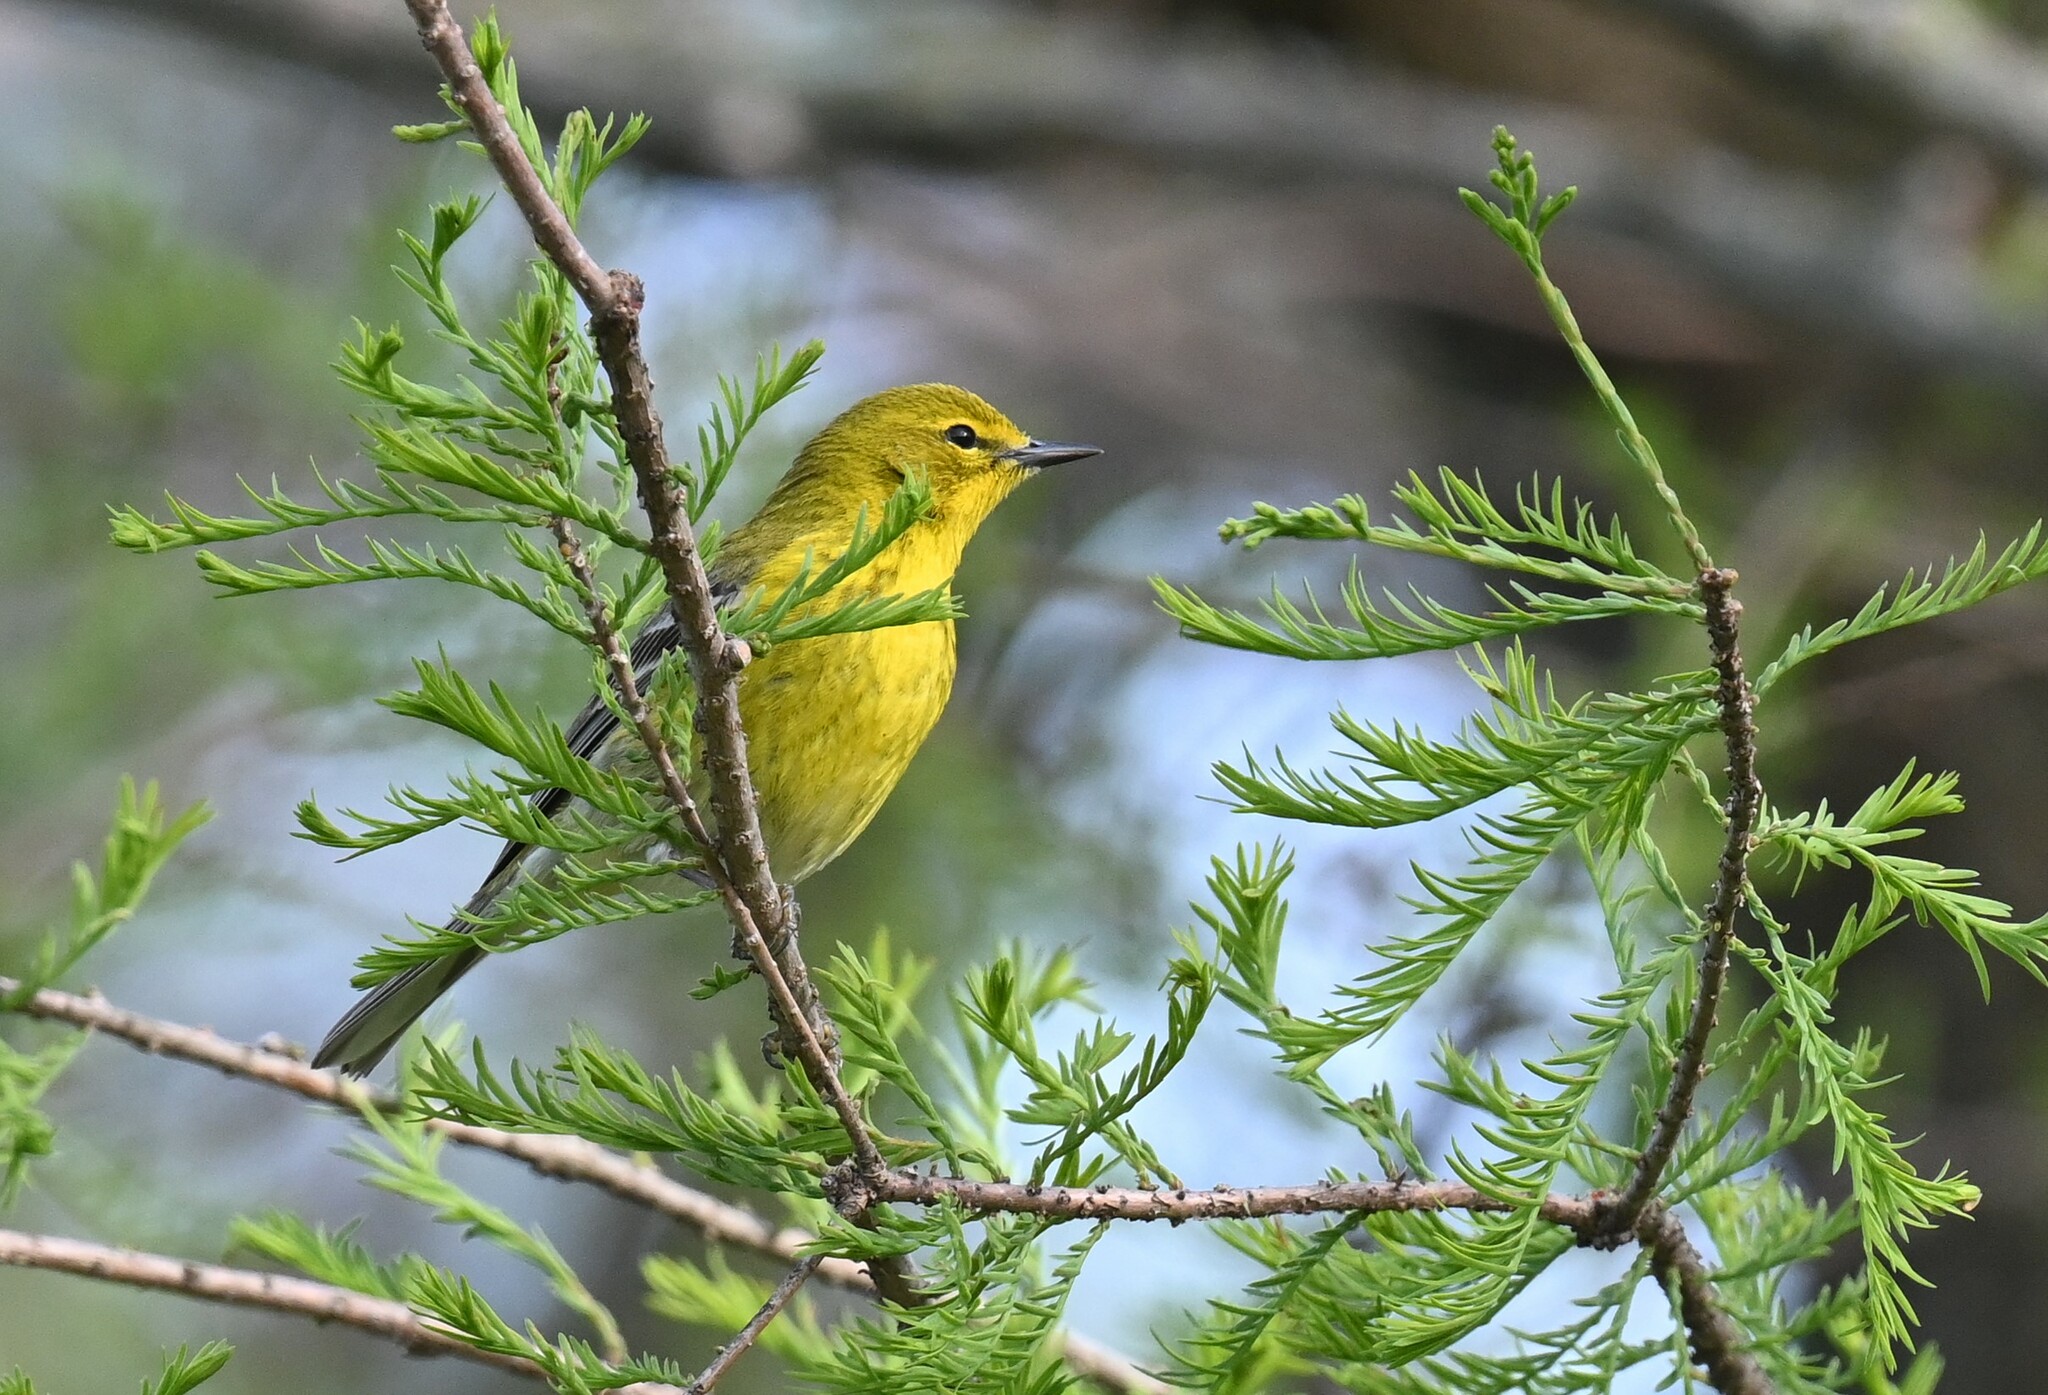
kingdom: Animalia
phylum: Chordata
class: Aves
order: Passeriformes
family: Parulidae
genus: Setophaga
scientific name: Setophaga pinus
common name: Pine warbler
